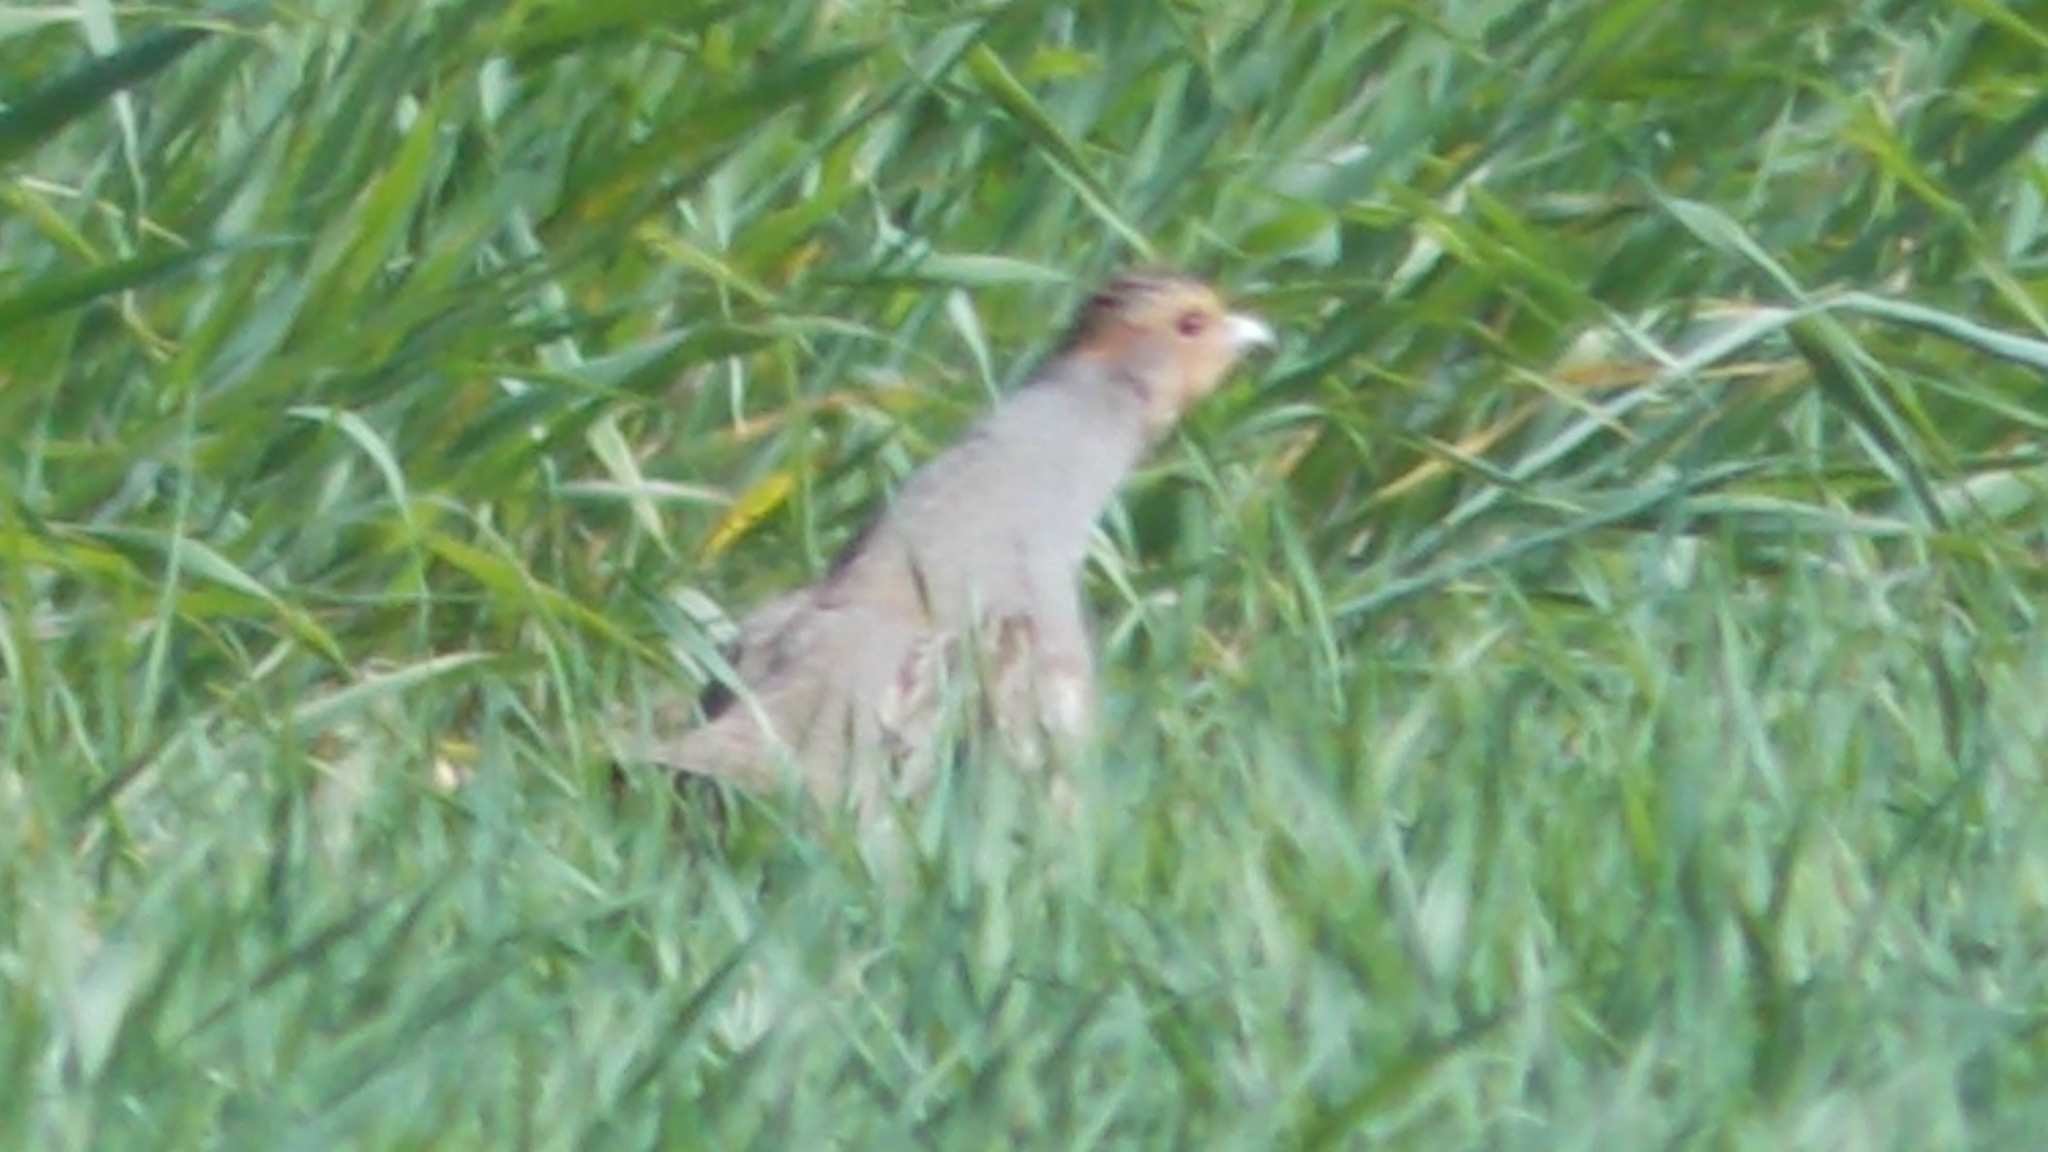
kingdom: Animalia
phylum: Chordata
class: Aves
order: Galliformes
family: Phasianidae
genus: Perdix
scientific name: Perdix perdix
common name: Grey partridge
